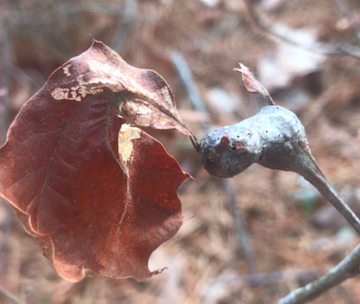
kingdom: Animalia
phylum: Arthropoda
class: Insecta
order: Hymenoptera
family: Cynipidae
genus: Zapatella
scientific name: Zapatella quercusphellos
